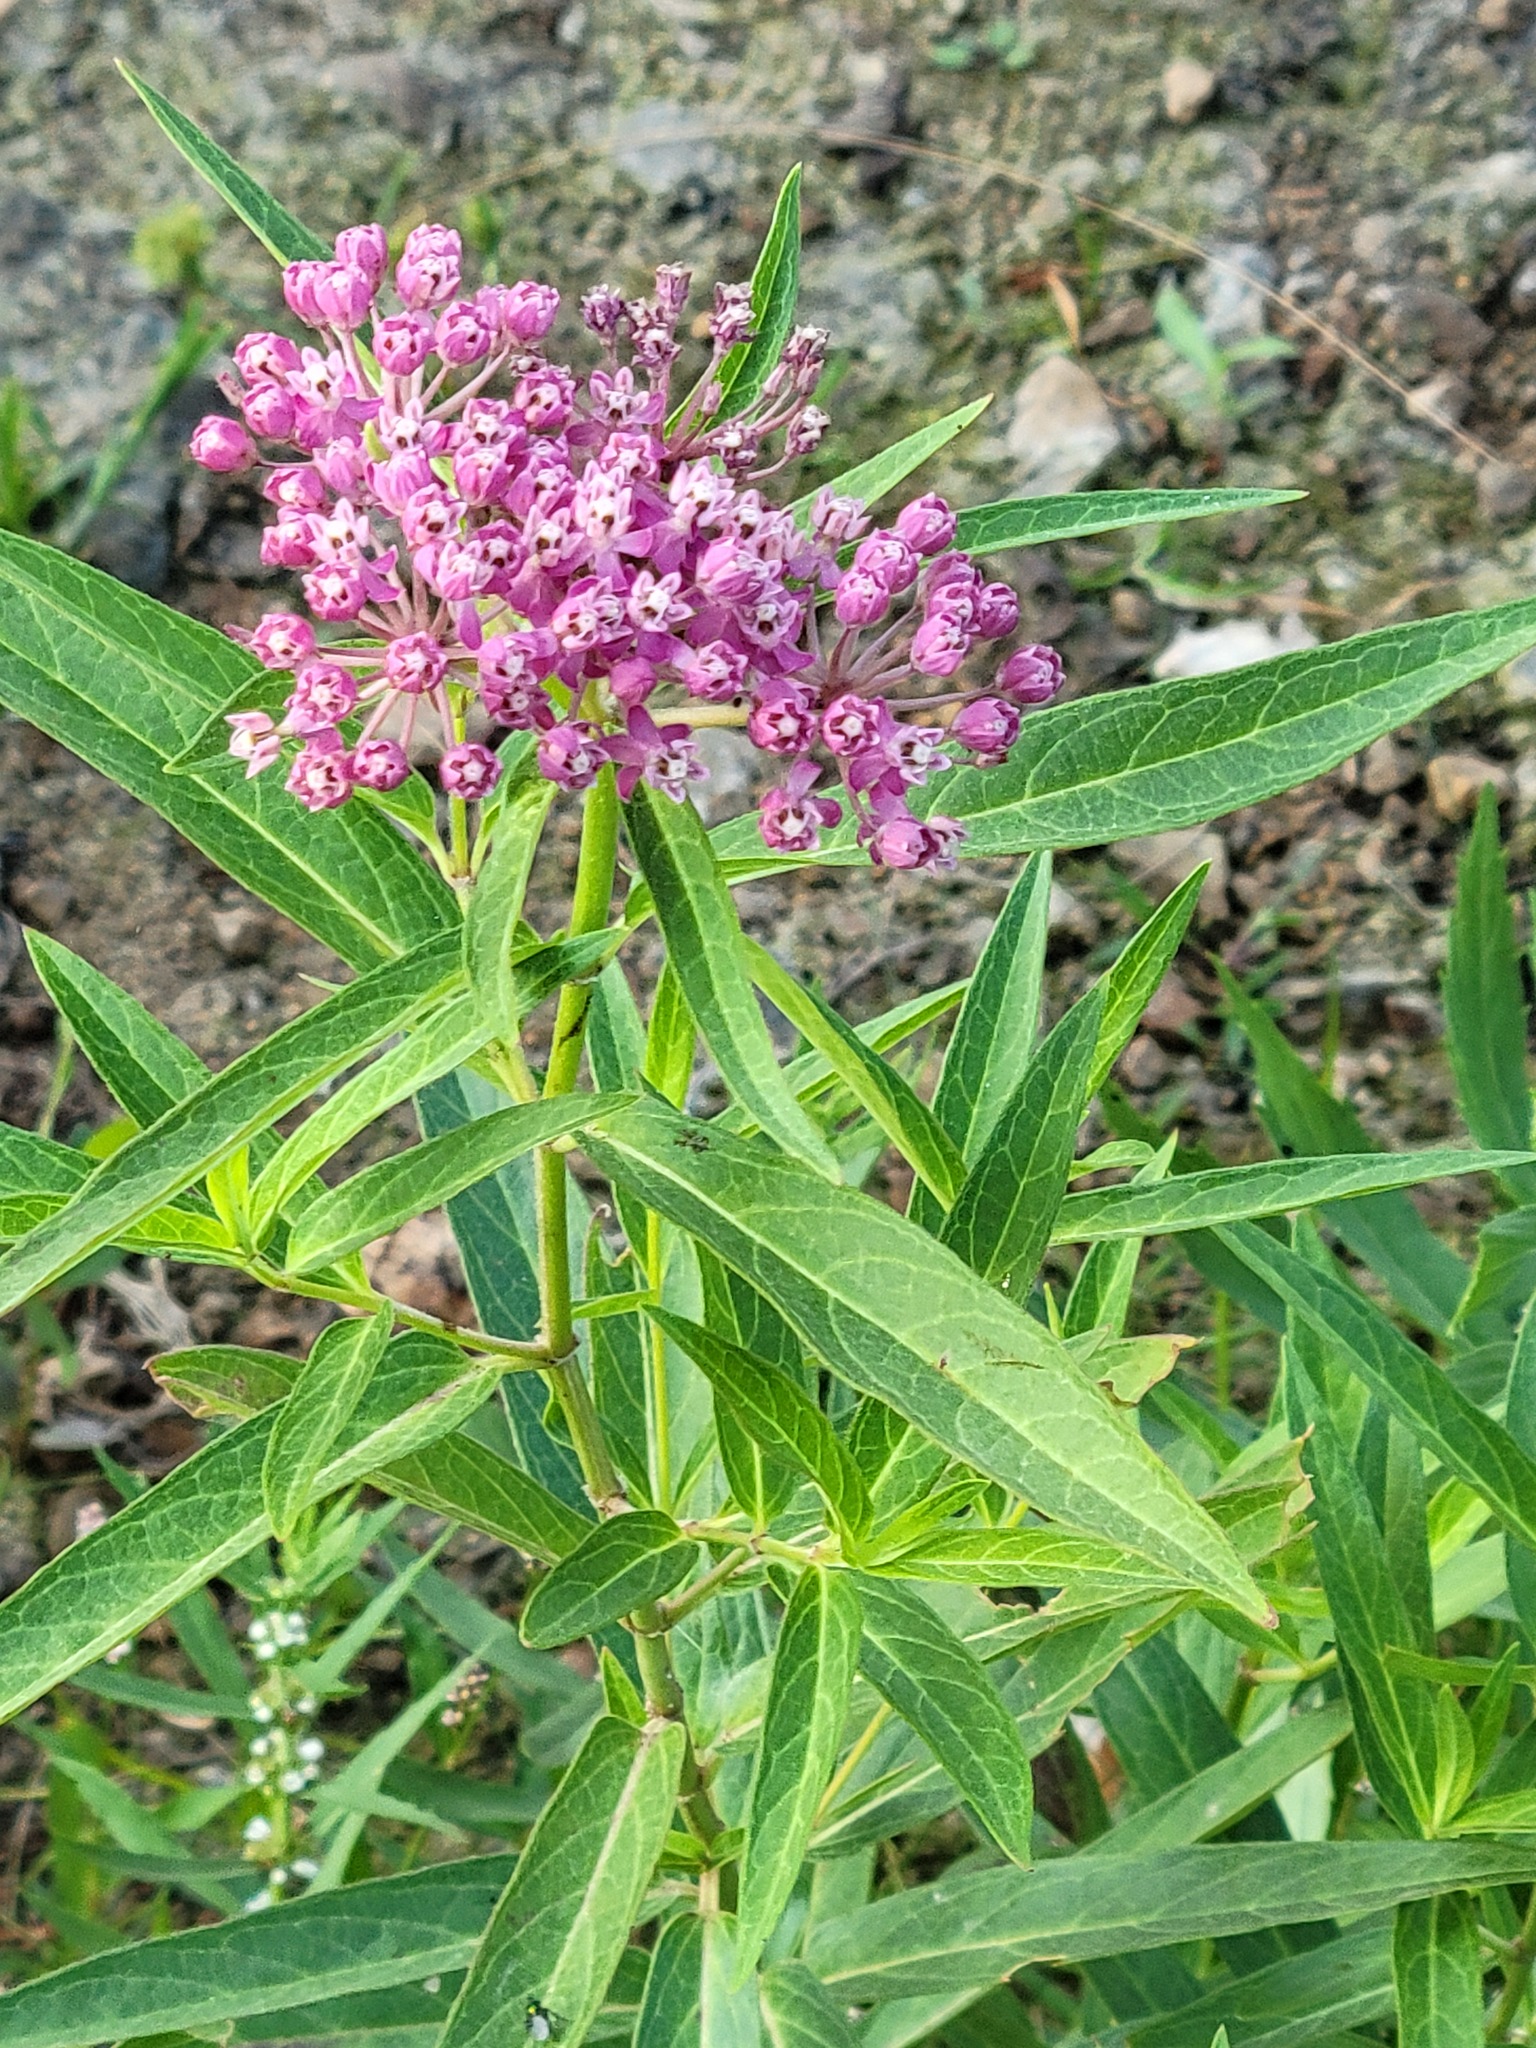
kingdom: Plantae
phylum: Tracheophyta
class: Magnoliopsida
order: Gentianales
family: Apocynaceae
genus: Asclepias
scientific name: Asclepias incarnata
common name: Swamp milkweed
